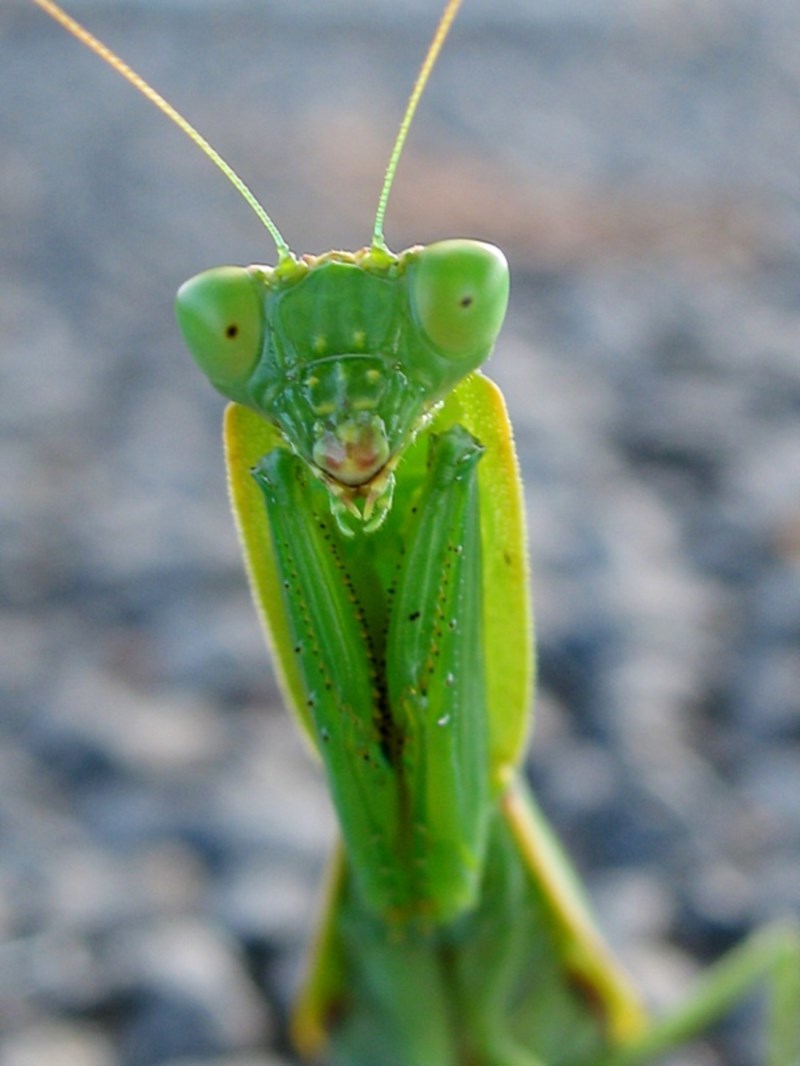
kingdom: Animalia
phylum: Arthropoda
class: Insecta
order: Mantodea
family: Mantidae
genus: Orthodera
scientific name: Orthodera ministralis
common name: Mantis
